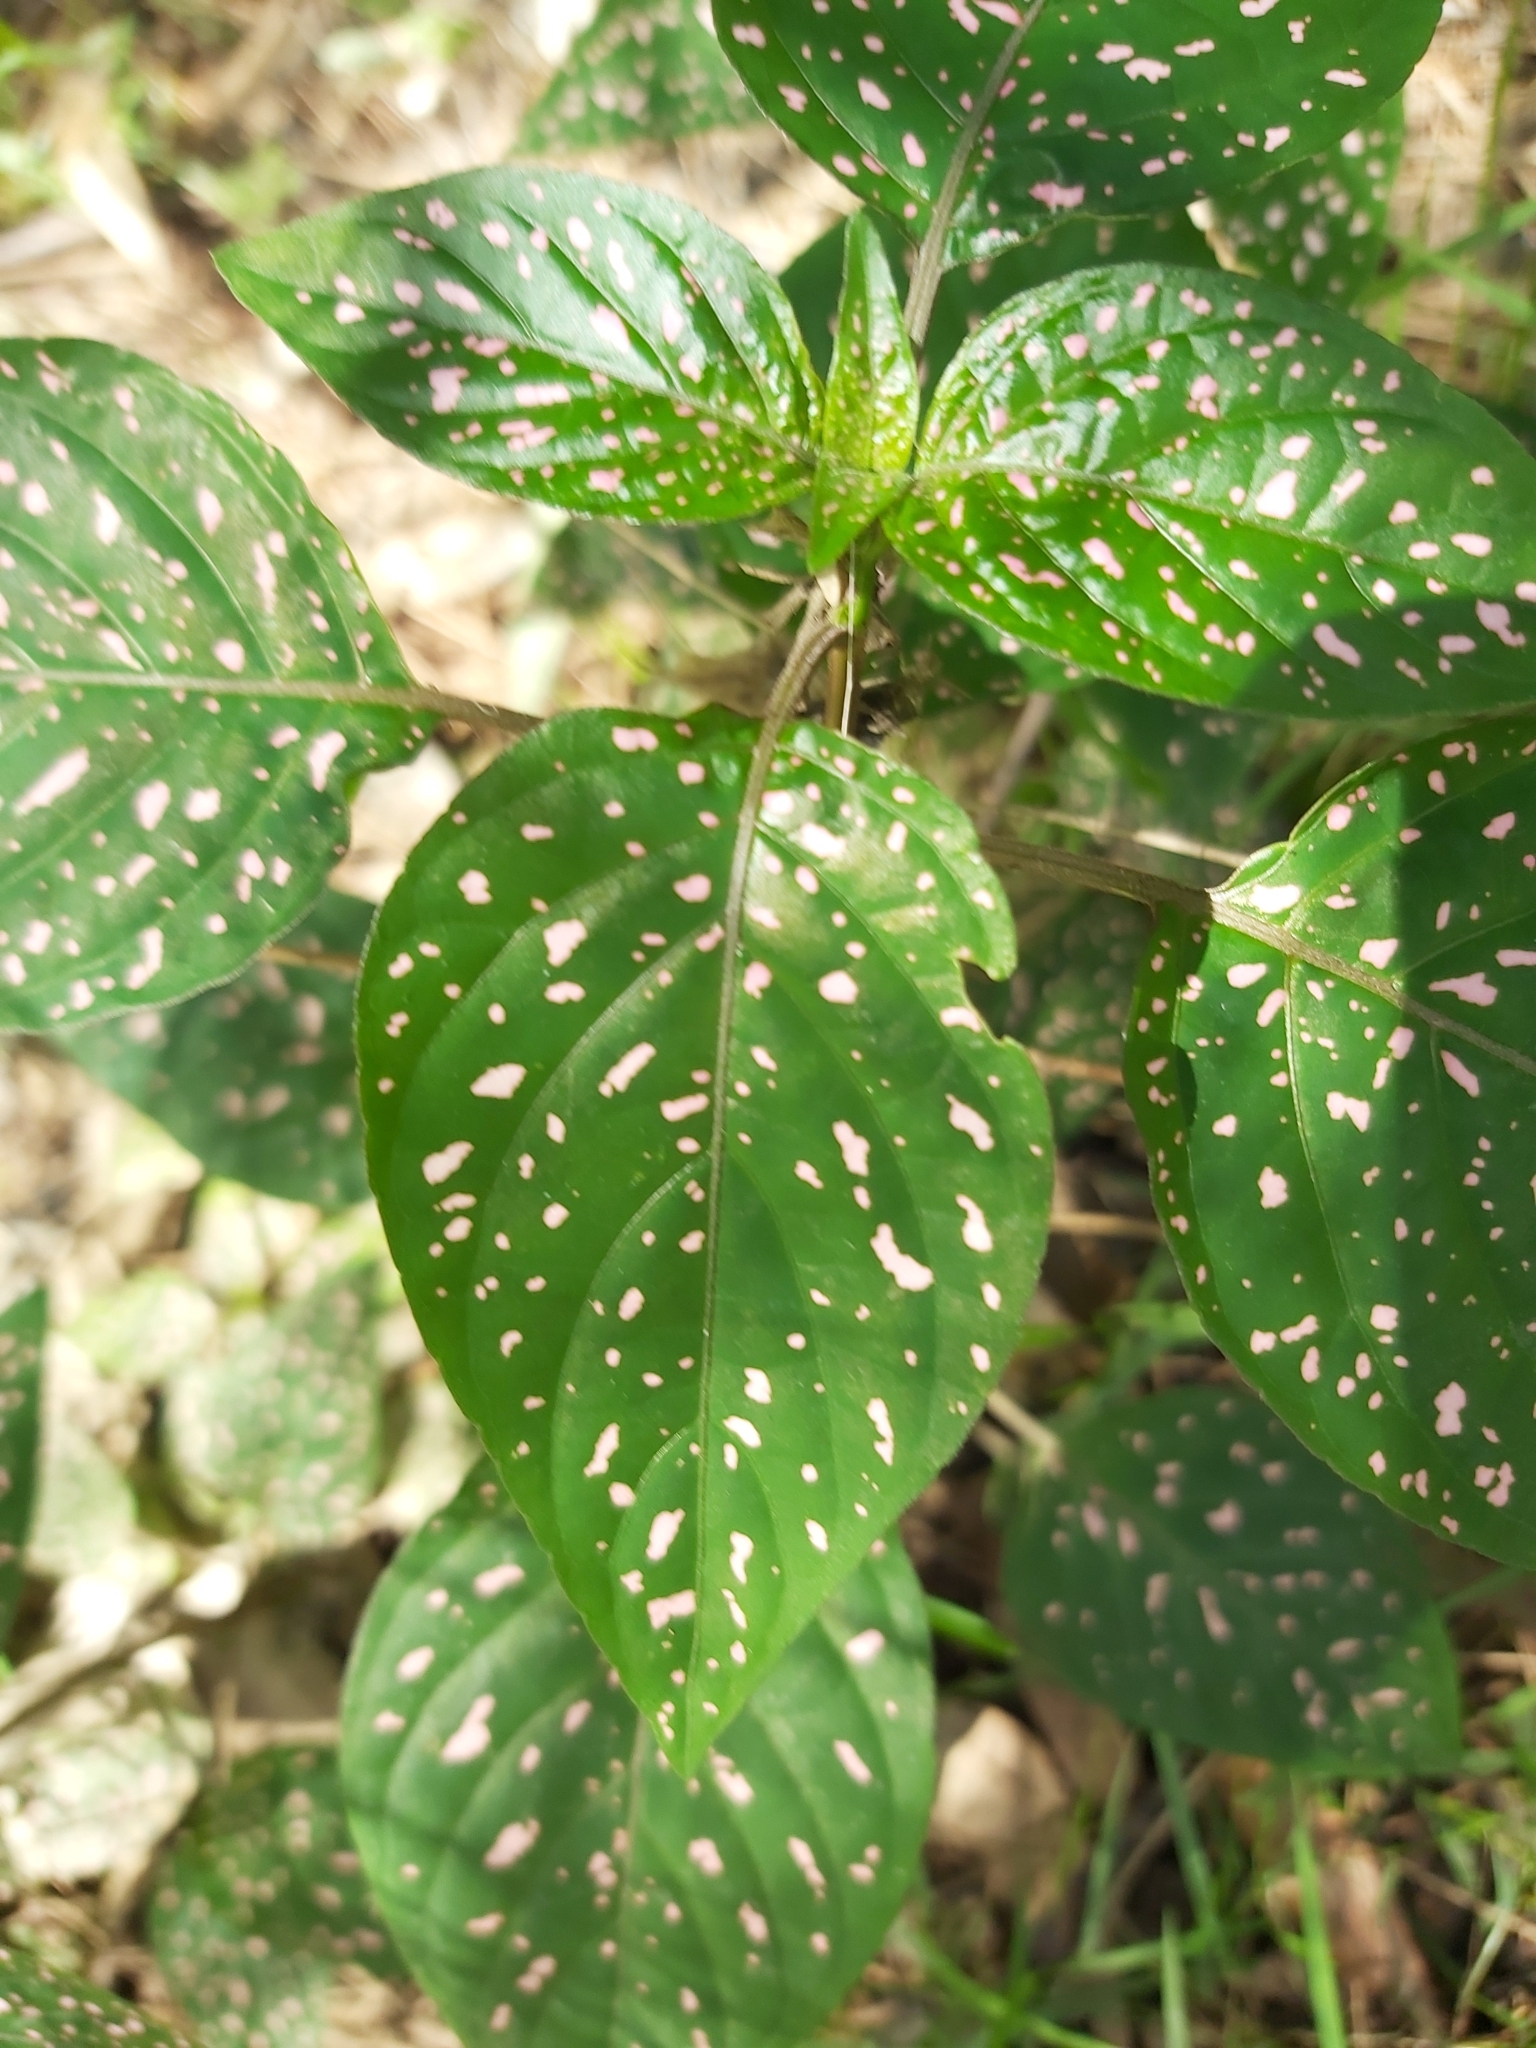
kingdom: Plantae
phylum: Tracheophyta
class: Magnoliopsida
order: Lamiales
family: Acanthaceae
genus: Hypoestes
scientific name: Hypoestes phyllostachya
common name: Polkadot-plant
